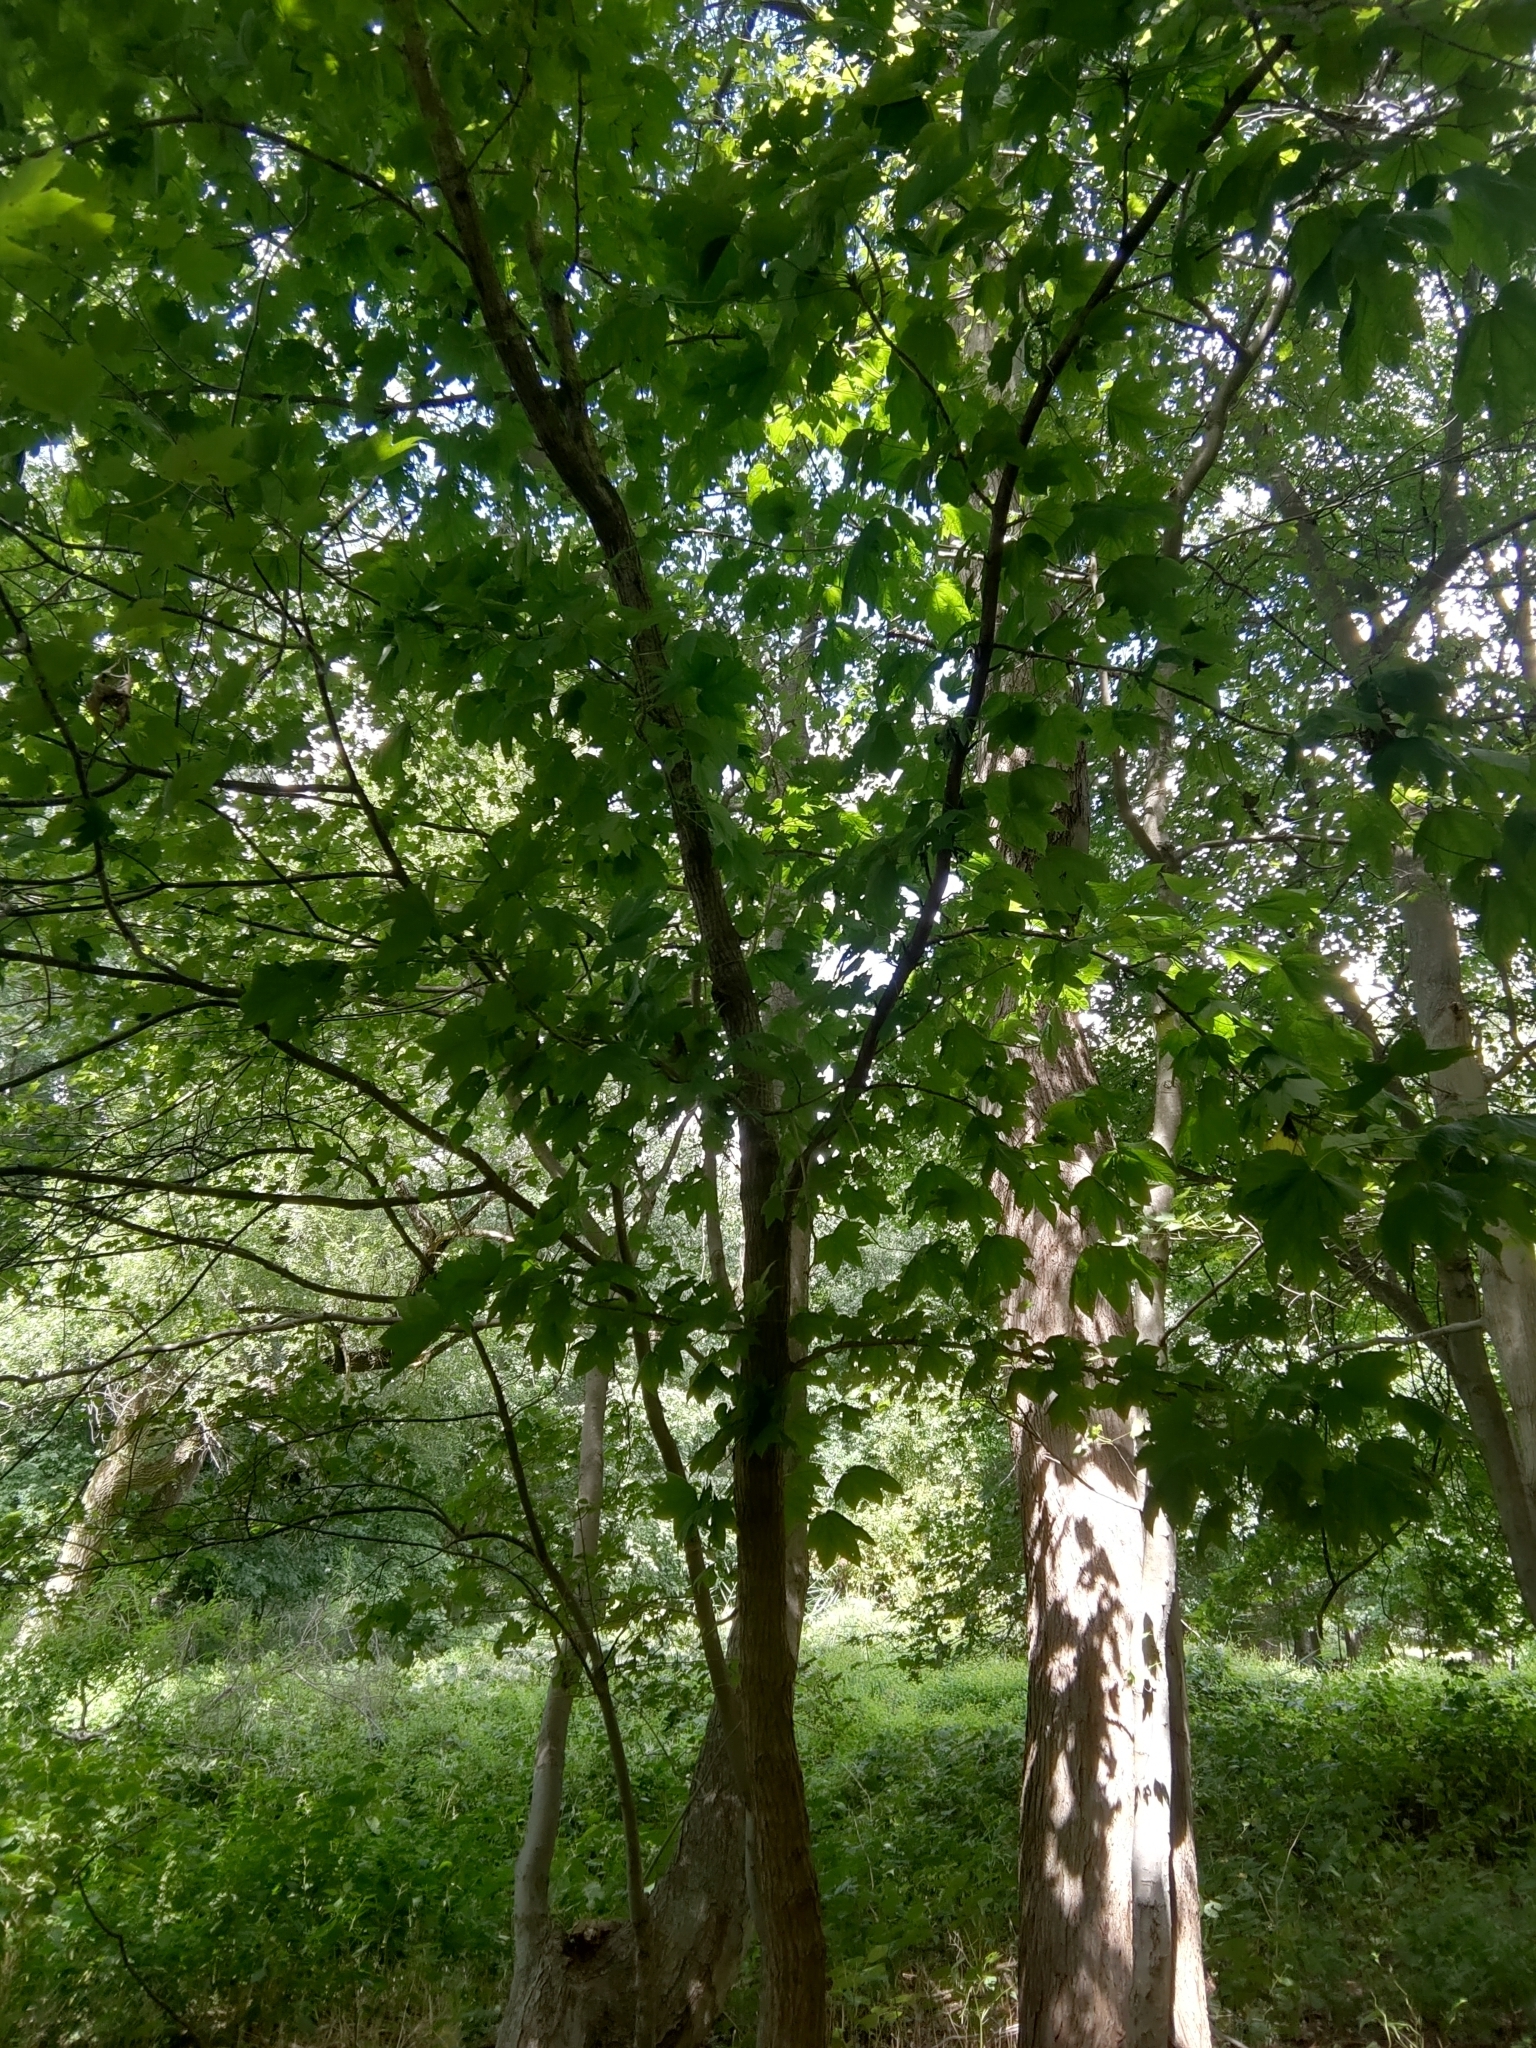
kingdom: Plantae
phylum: Tracheophyta
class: Magnoliopsida
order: Apiales
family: Araliaceae
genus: Kalopanax
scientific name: Kalopanax septemlobus
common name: Castor aralia
